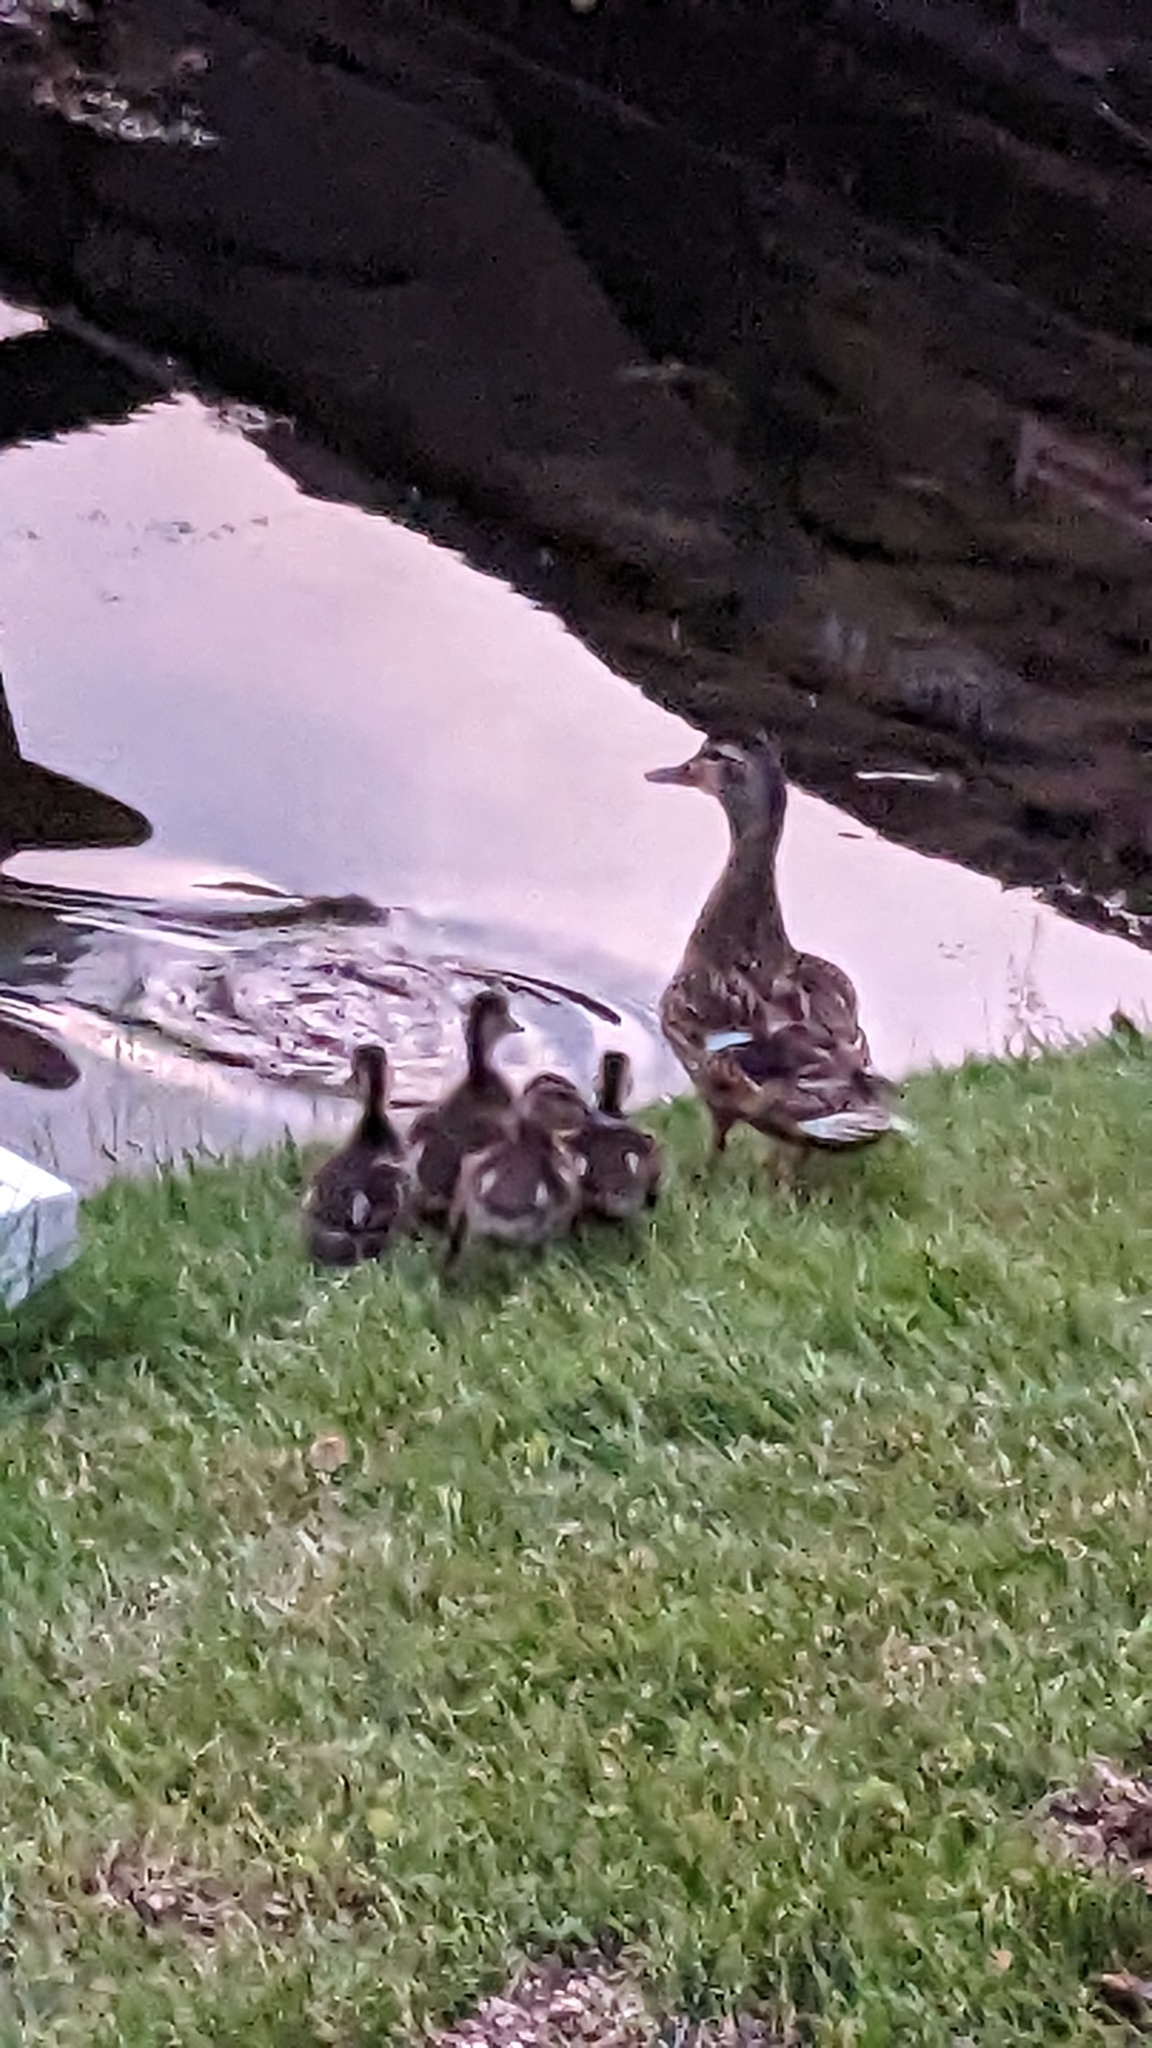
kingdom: Animalia
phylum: Chordata
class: Aves
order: Anseriformes
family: Anatidae
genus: Anas
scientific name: Anas platyrhynchos
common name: Mallard
